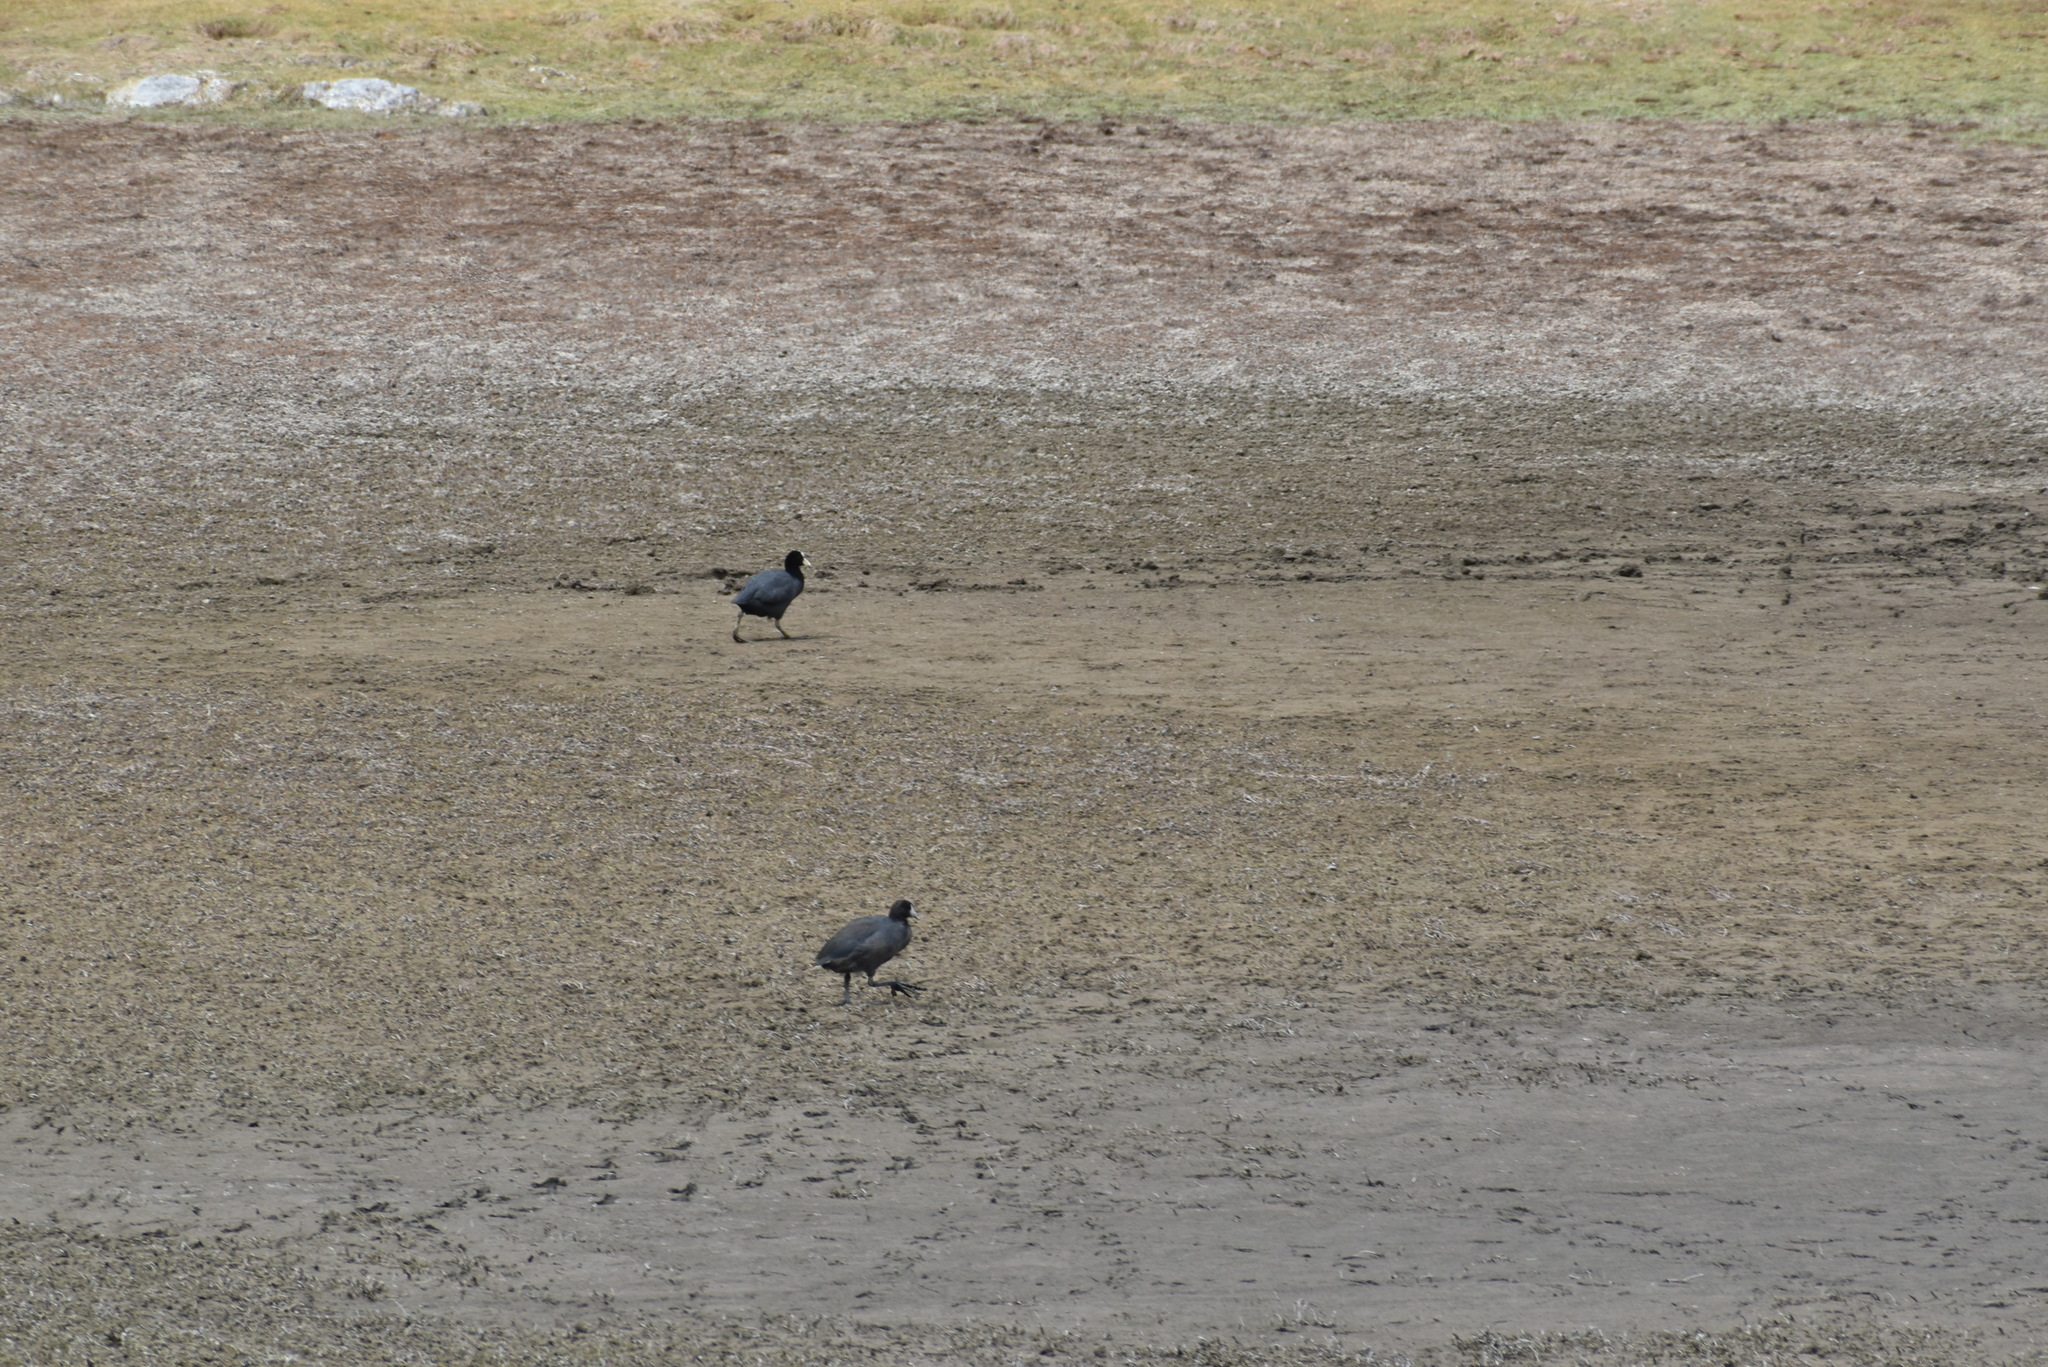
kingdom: Animalia
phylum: Chordata
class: Aves
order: Gruiformes
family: Rallidae
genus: Fulica
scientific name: Fulica ardesiaca
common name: Andean coot
